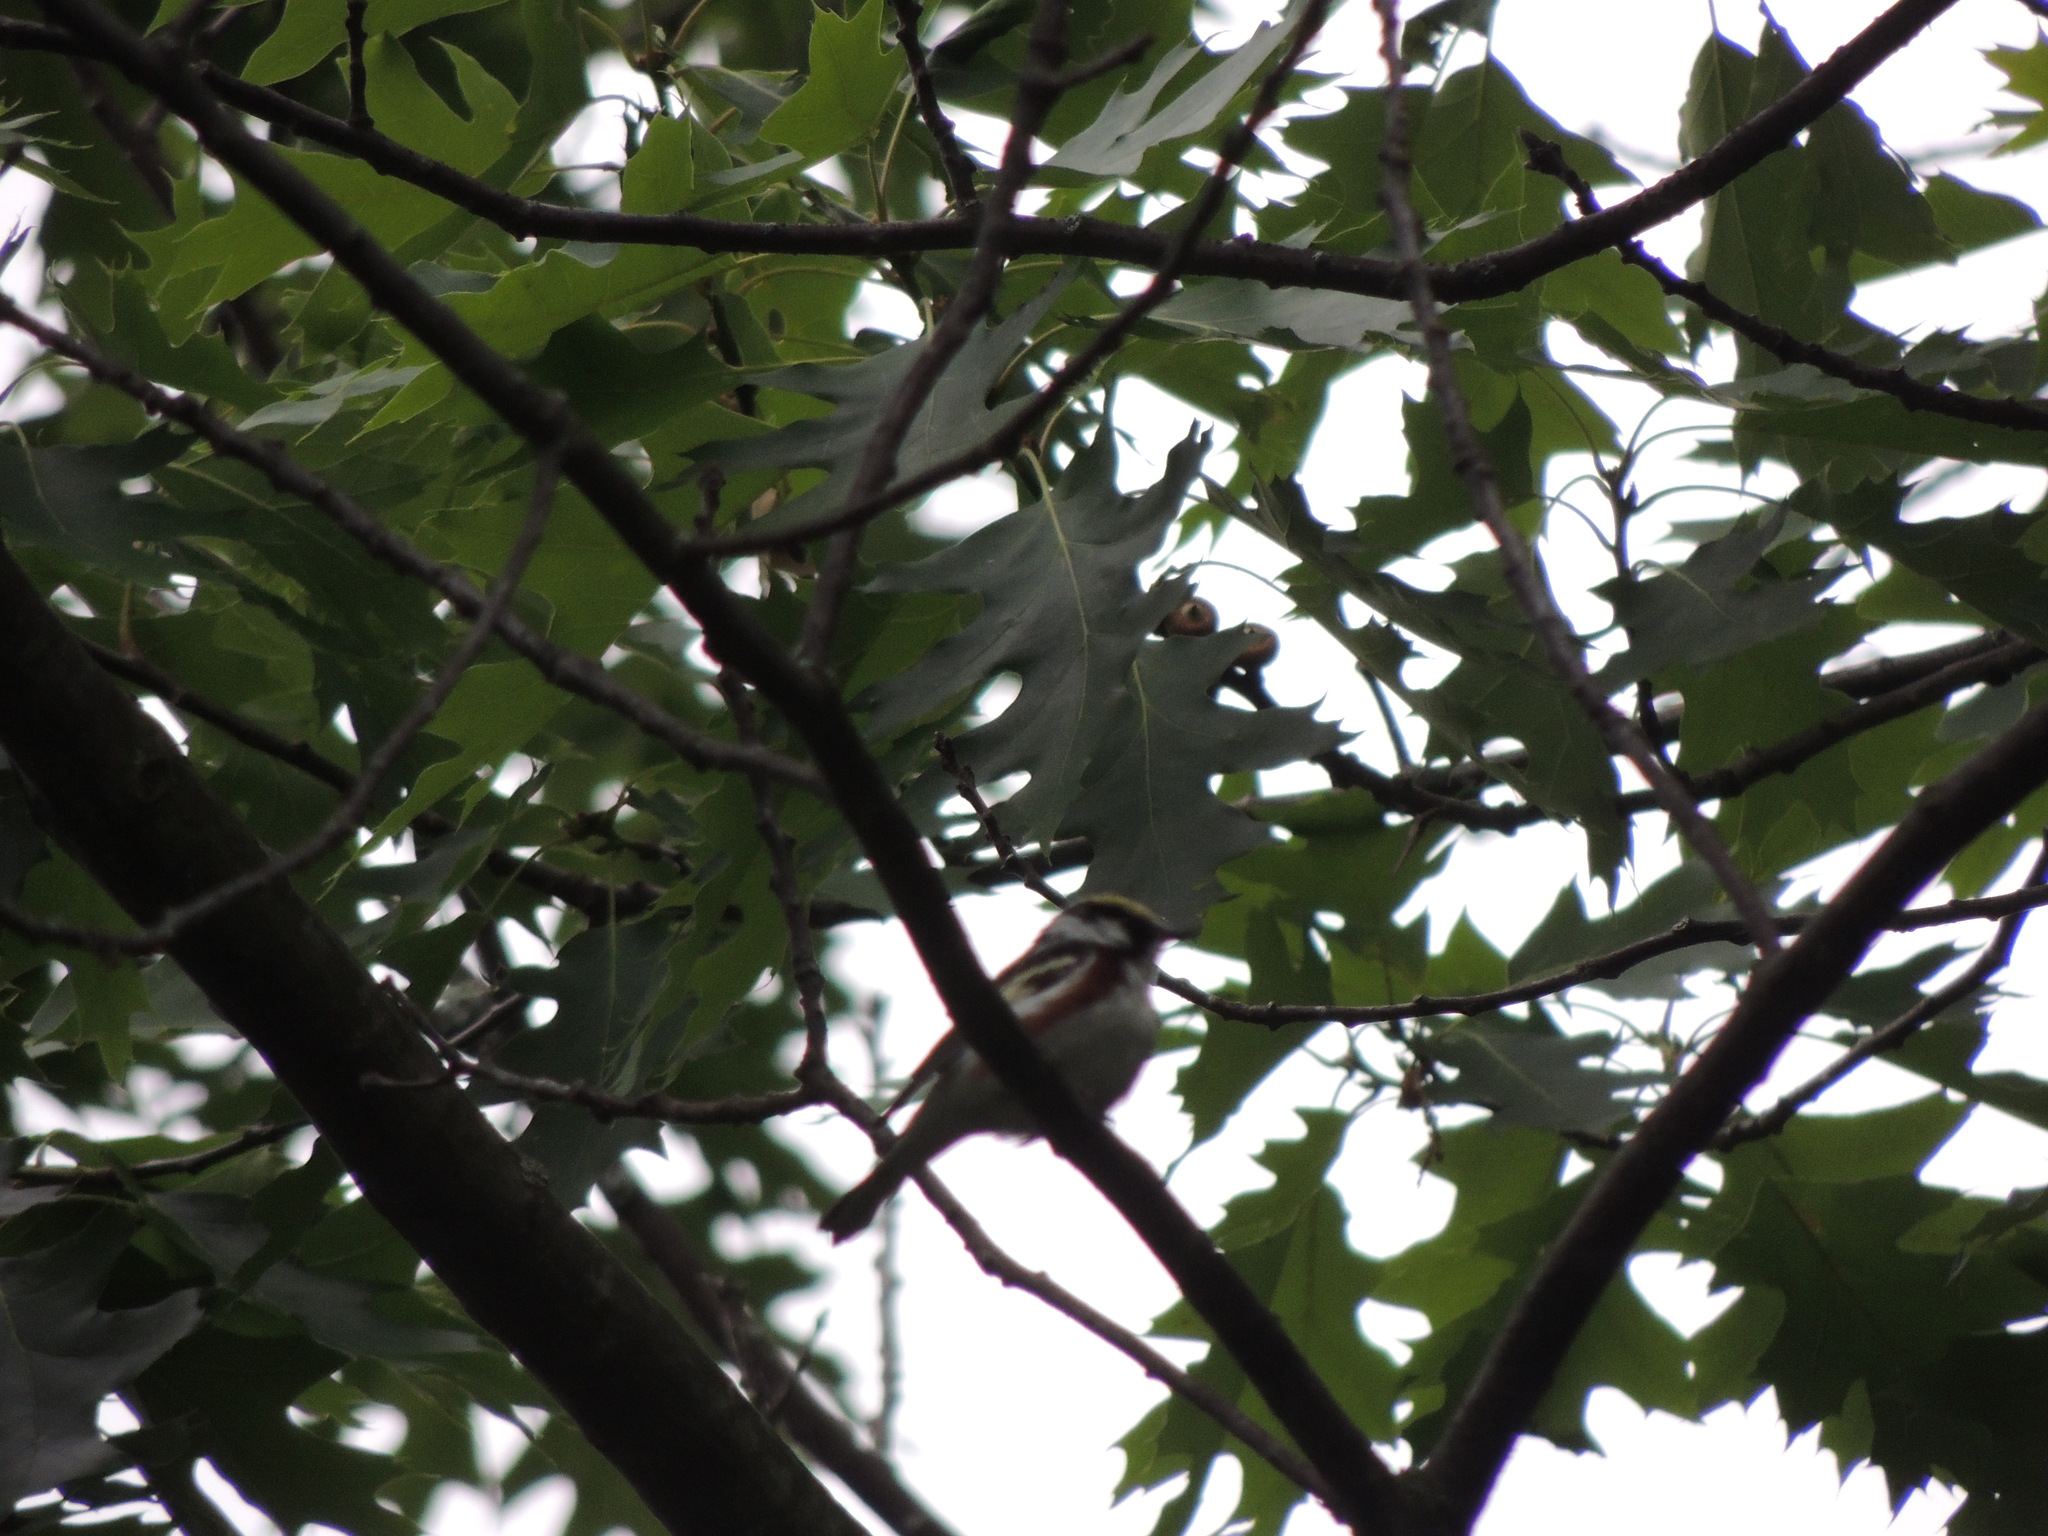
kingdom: Animalia
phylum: Chordata
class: Aves
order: Passeriformes
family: Parulidae
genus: Setophaga
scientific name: Setophaga pensylvanica
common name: Chestnut-sided warbler
